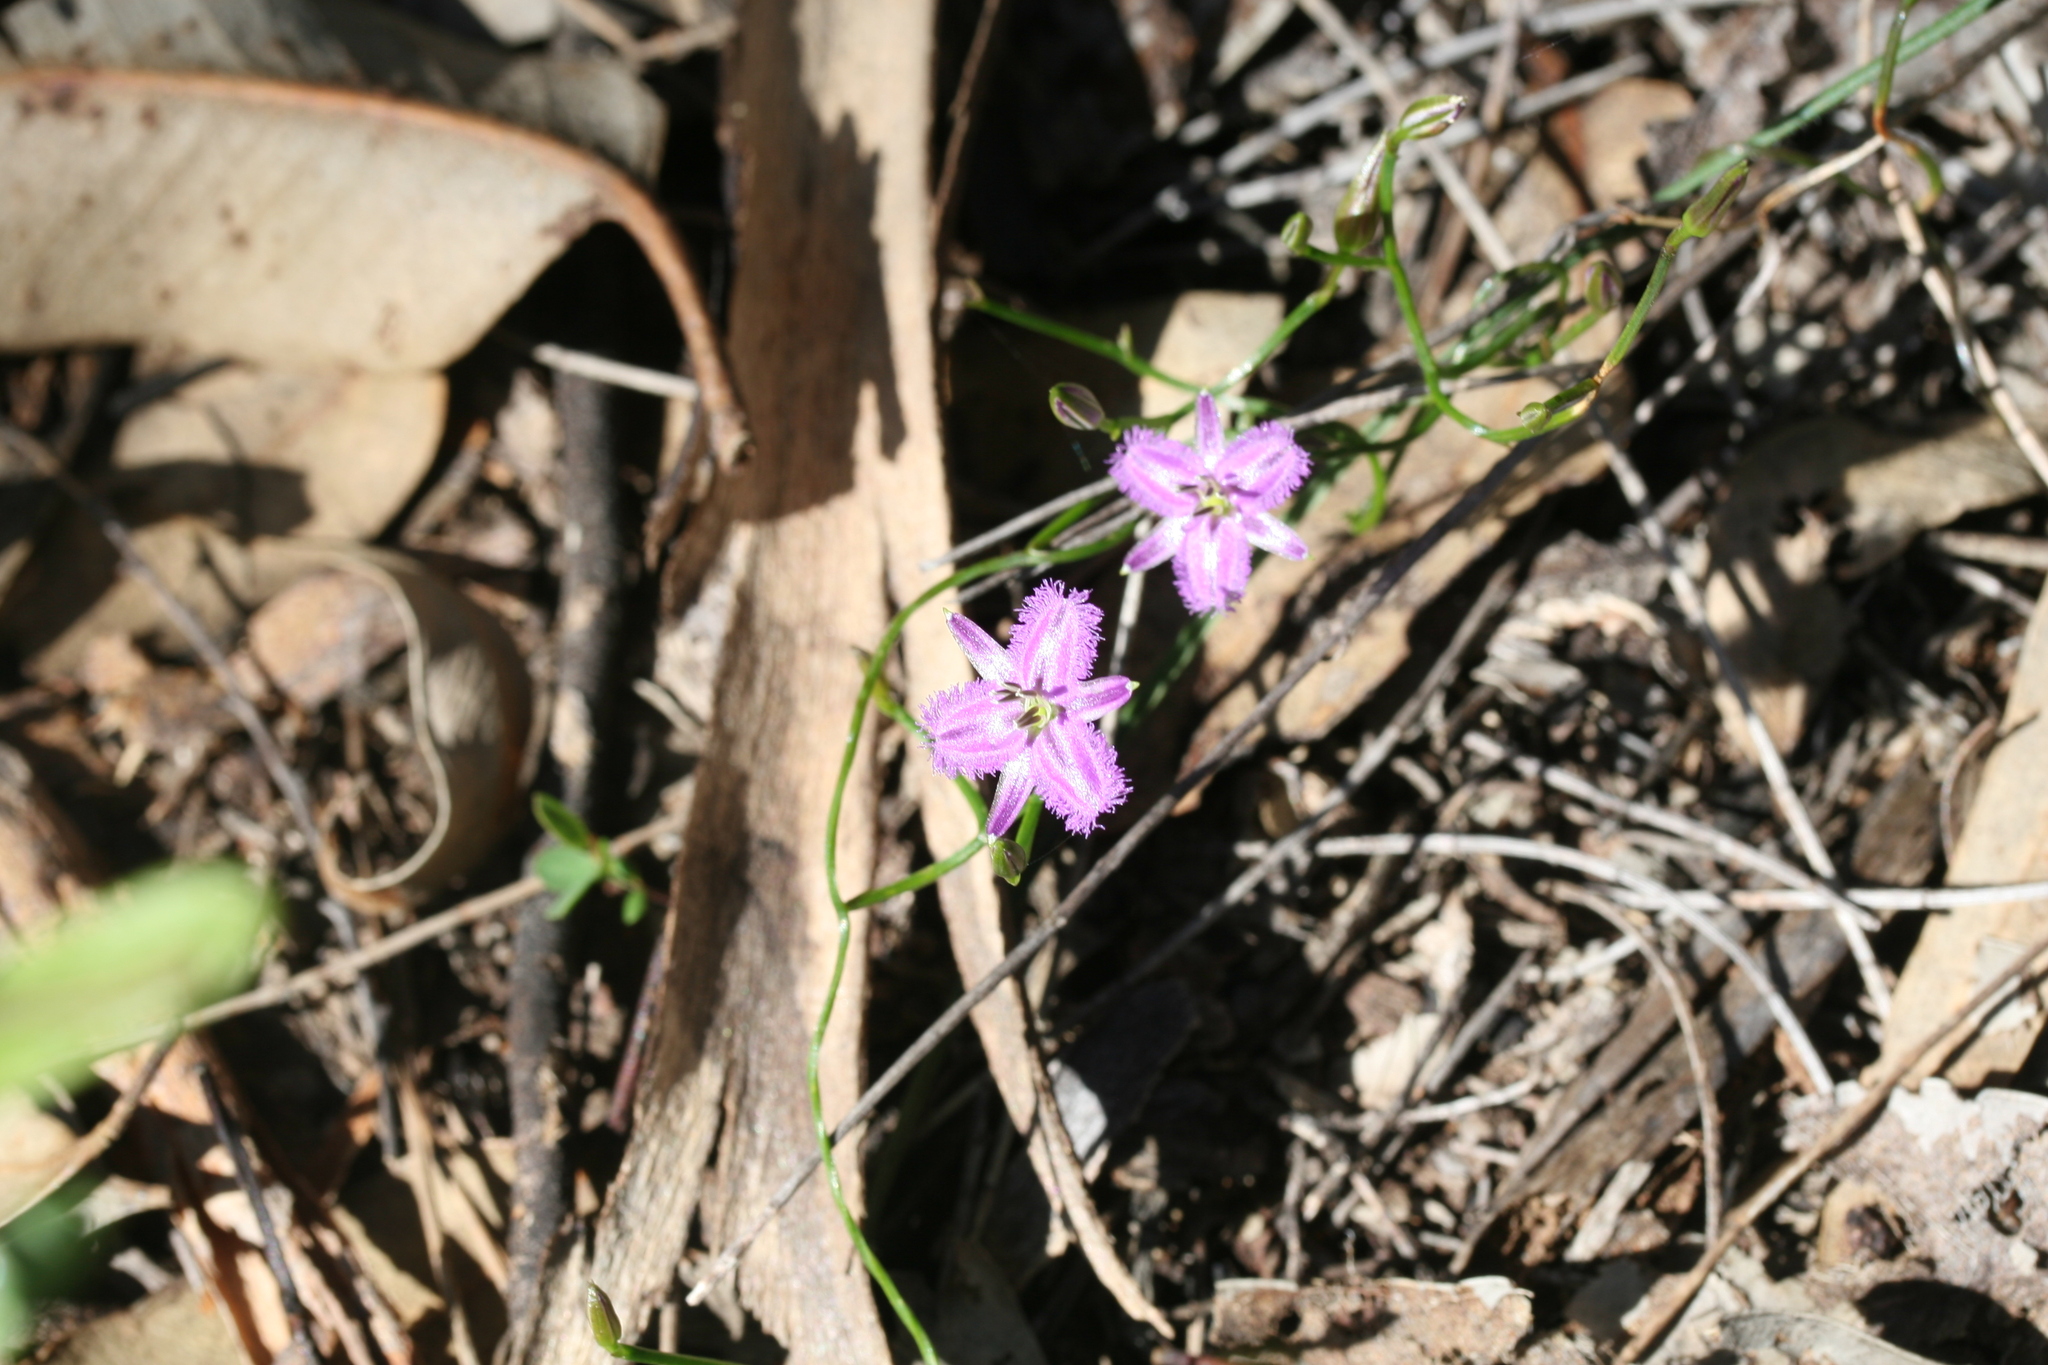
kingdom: Plantae
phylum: Tracheophyta
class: Liliopsida
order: Asparagales
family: Asparagaceae
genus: Thysanotus
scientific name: Thysanotus patersonii
